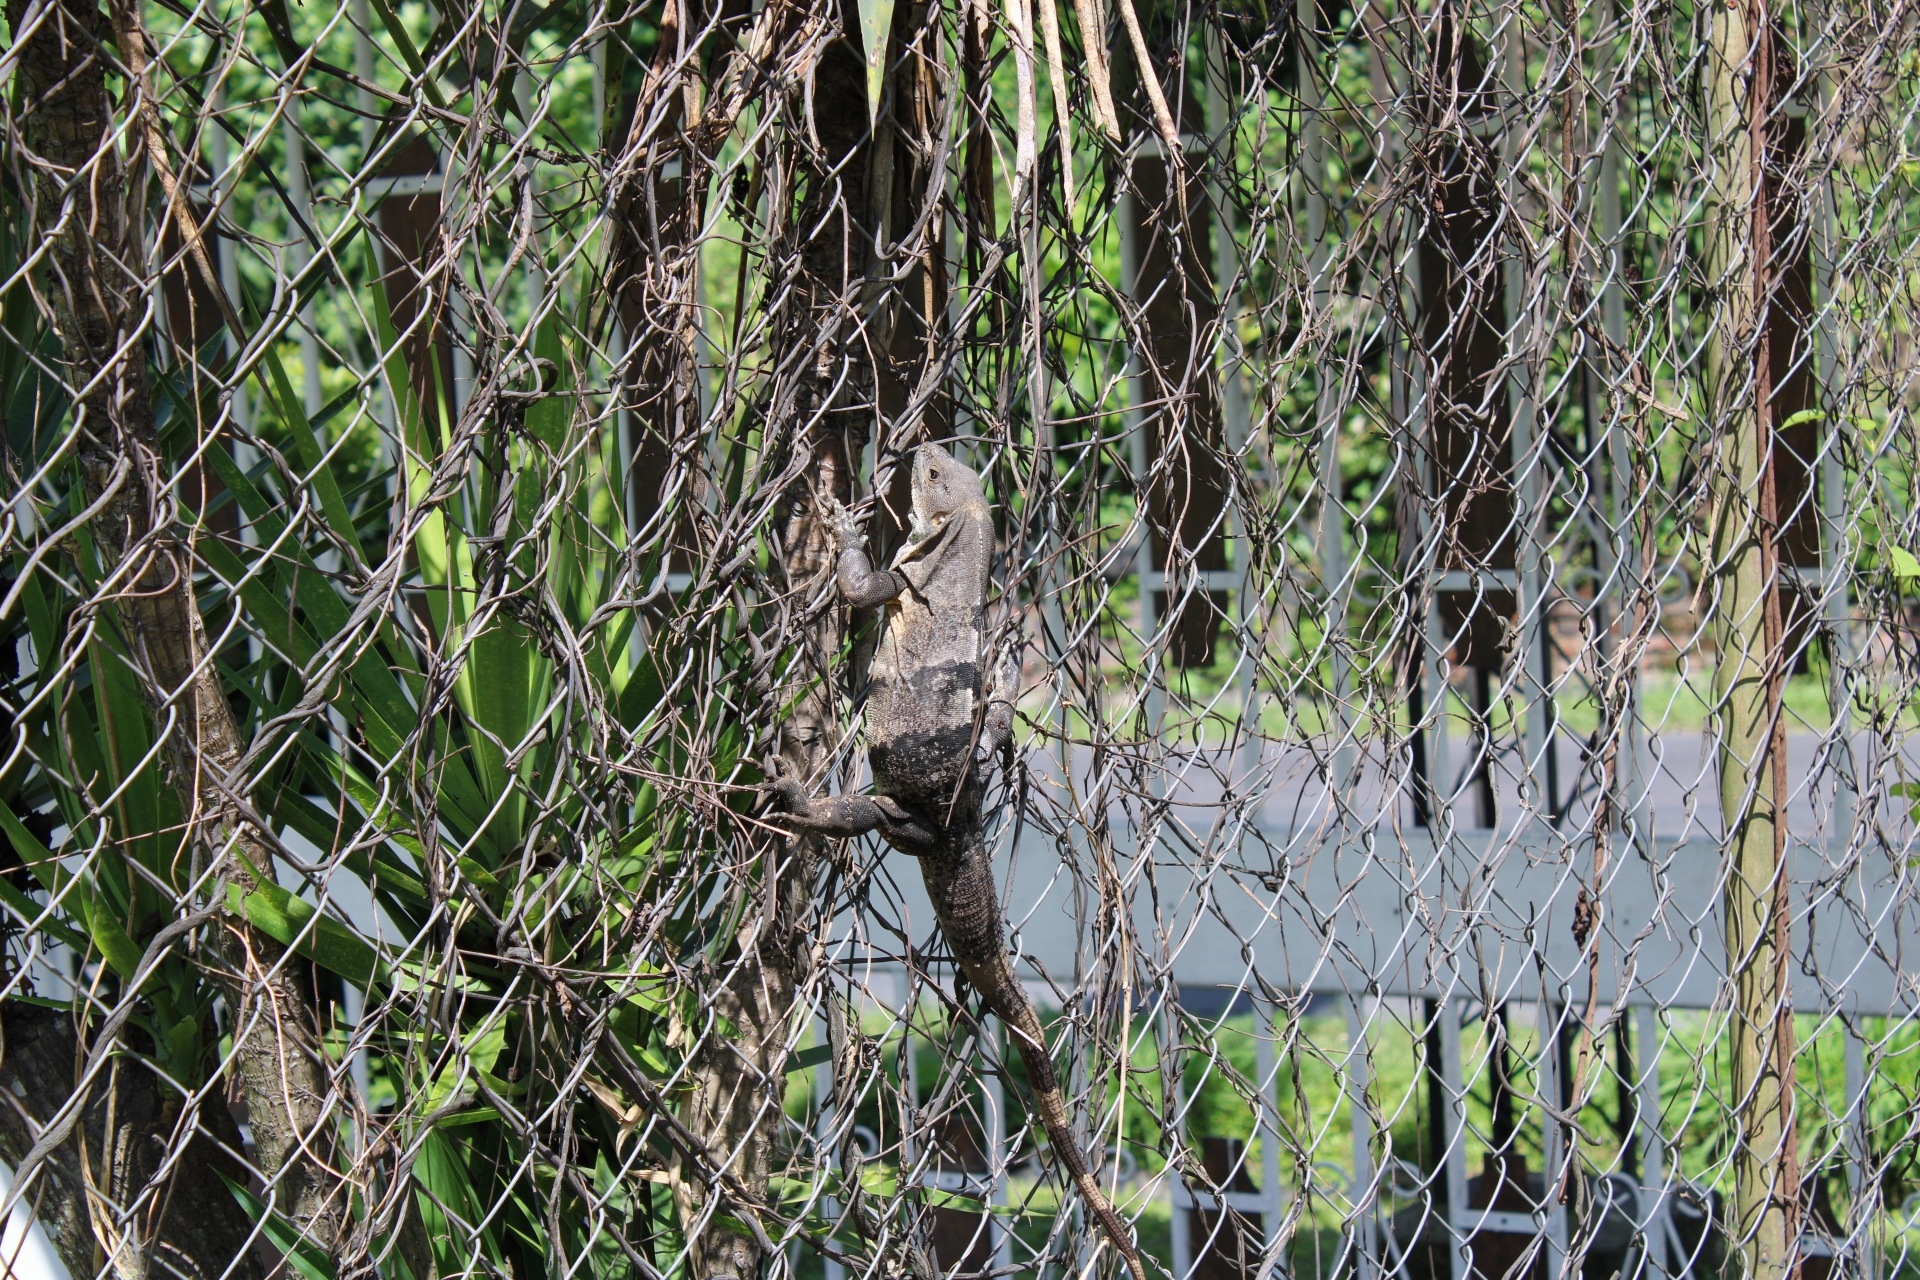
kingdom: Animalia
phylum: Chordata
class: Squamata
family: Iguanidae
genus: Ctenosaura
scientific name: Ctenosaura similis
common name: Black spiny-tailed iguana
